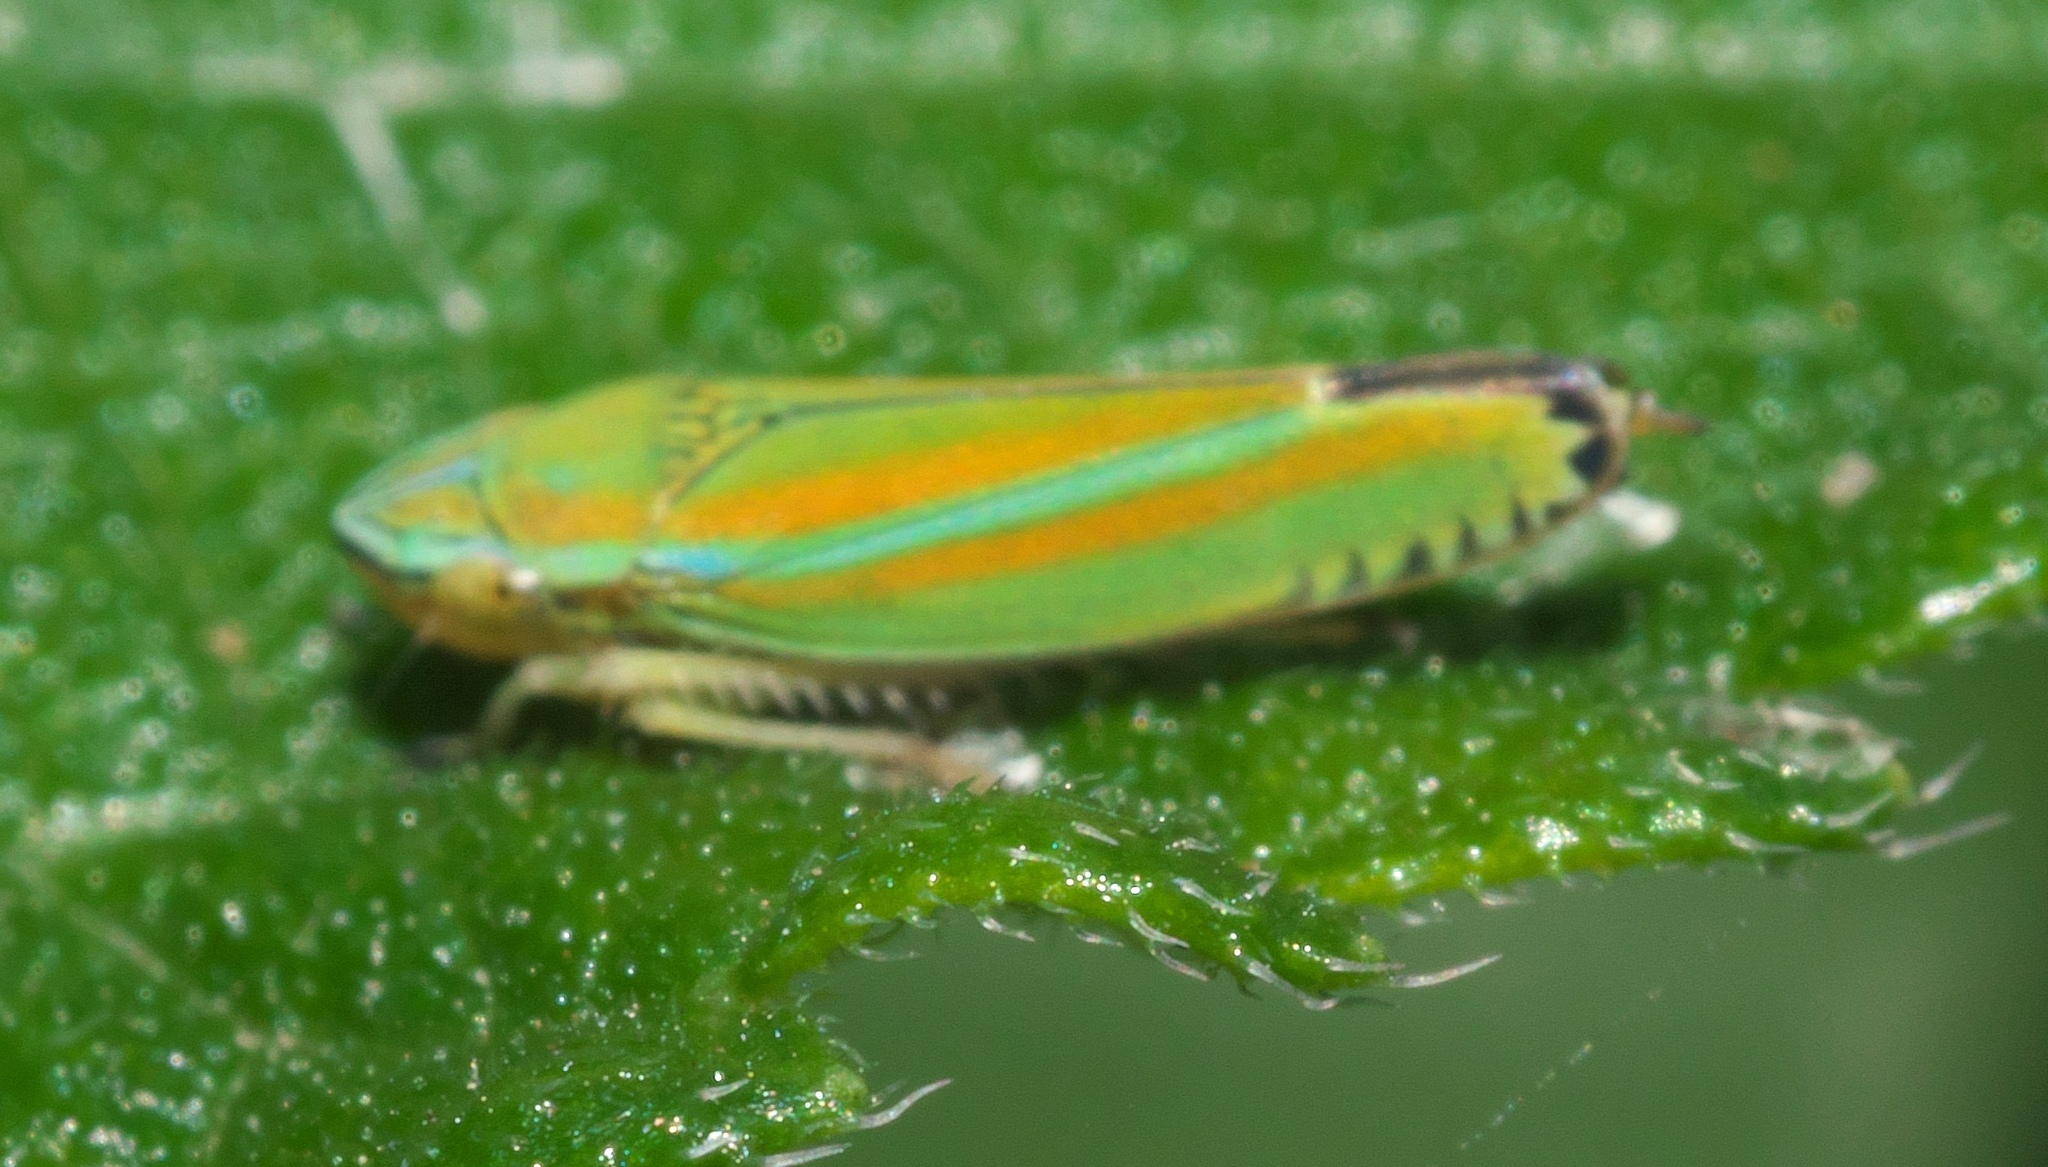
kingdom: Animalia
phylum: Arthropoda
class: Insecta
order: Hemiptera
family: Cicadellidae
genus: Graphocephala
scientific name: Graphocephala versuta
